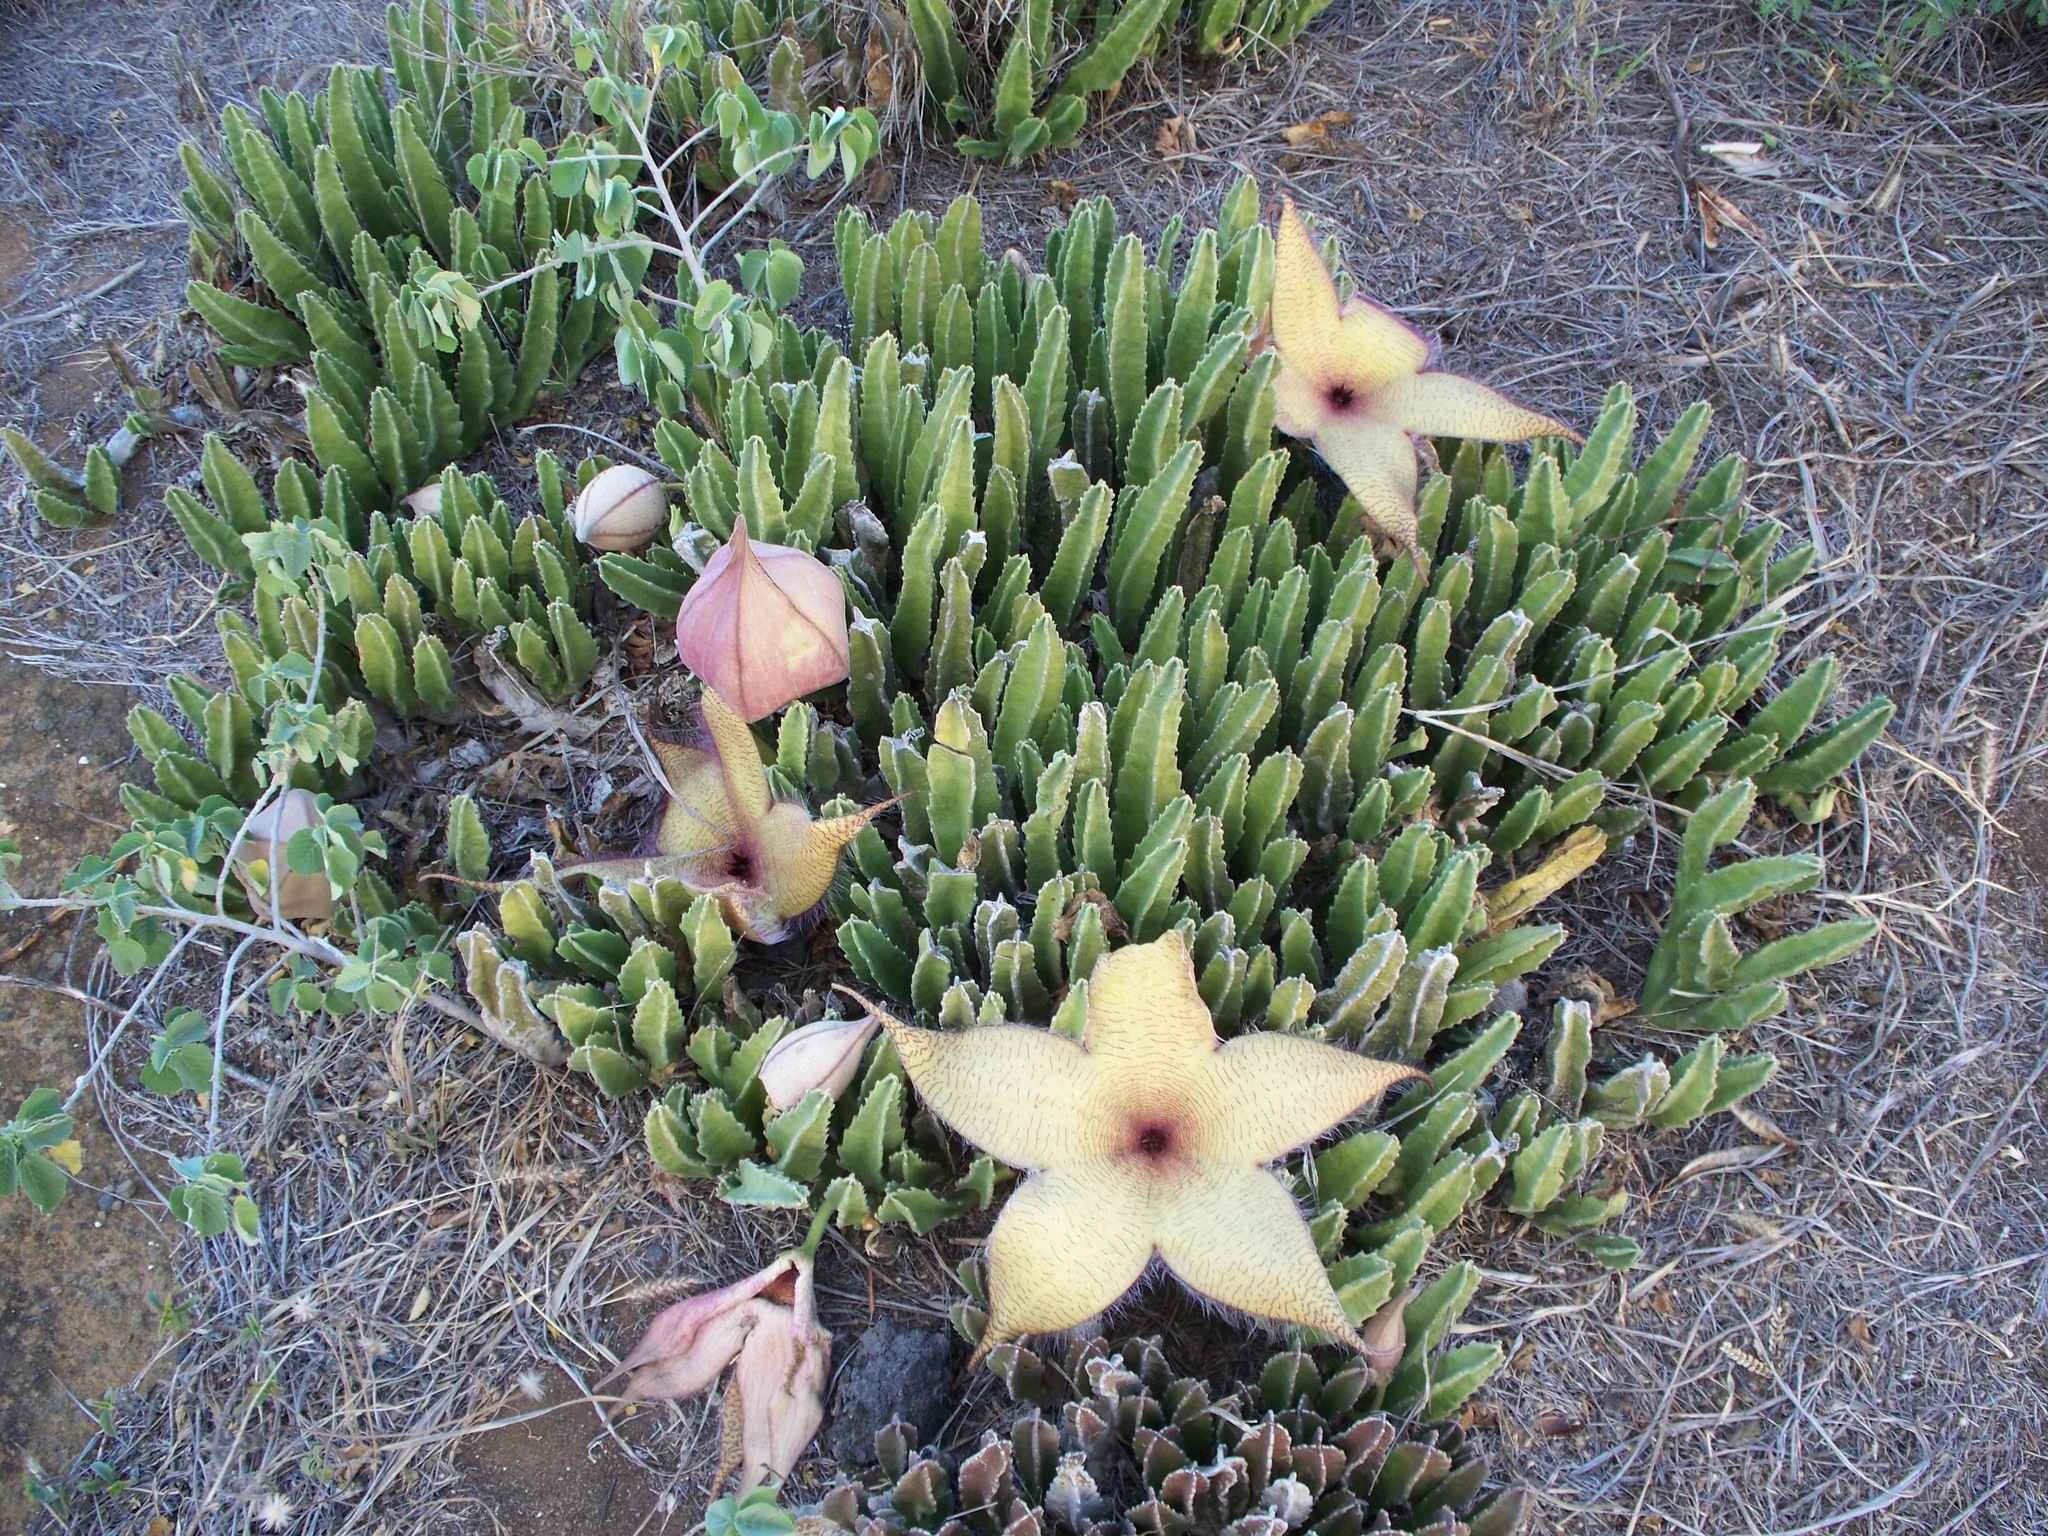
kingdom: Plantae
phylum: Tracheophyta
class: Magnoliopsida
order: Gentianales
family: Apocynaceae
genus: Ceropegia
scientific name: Ceropegia gigantea
